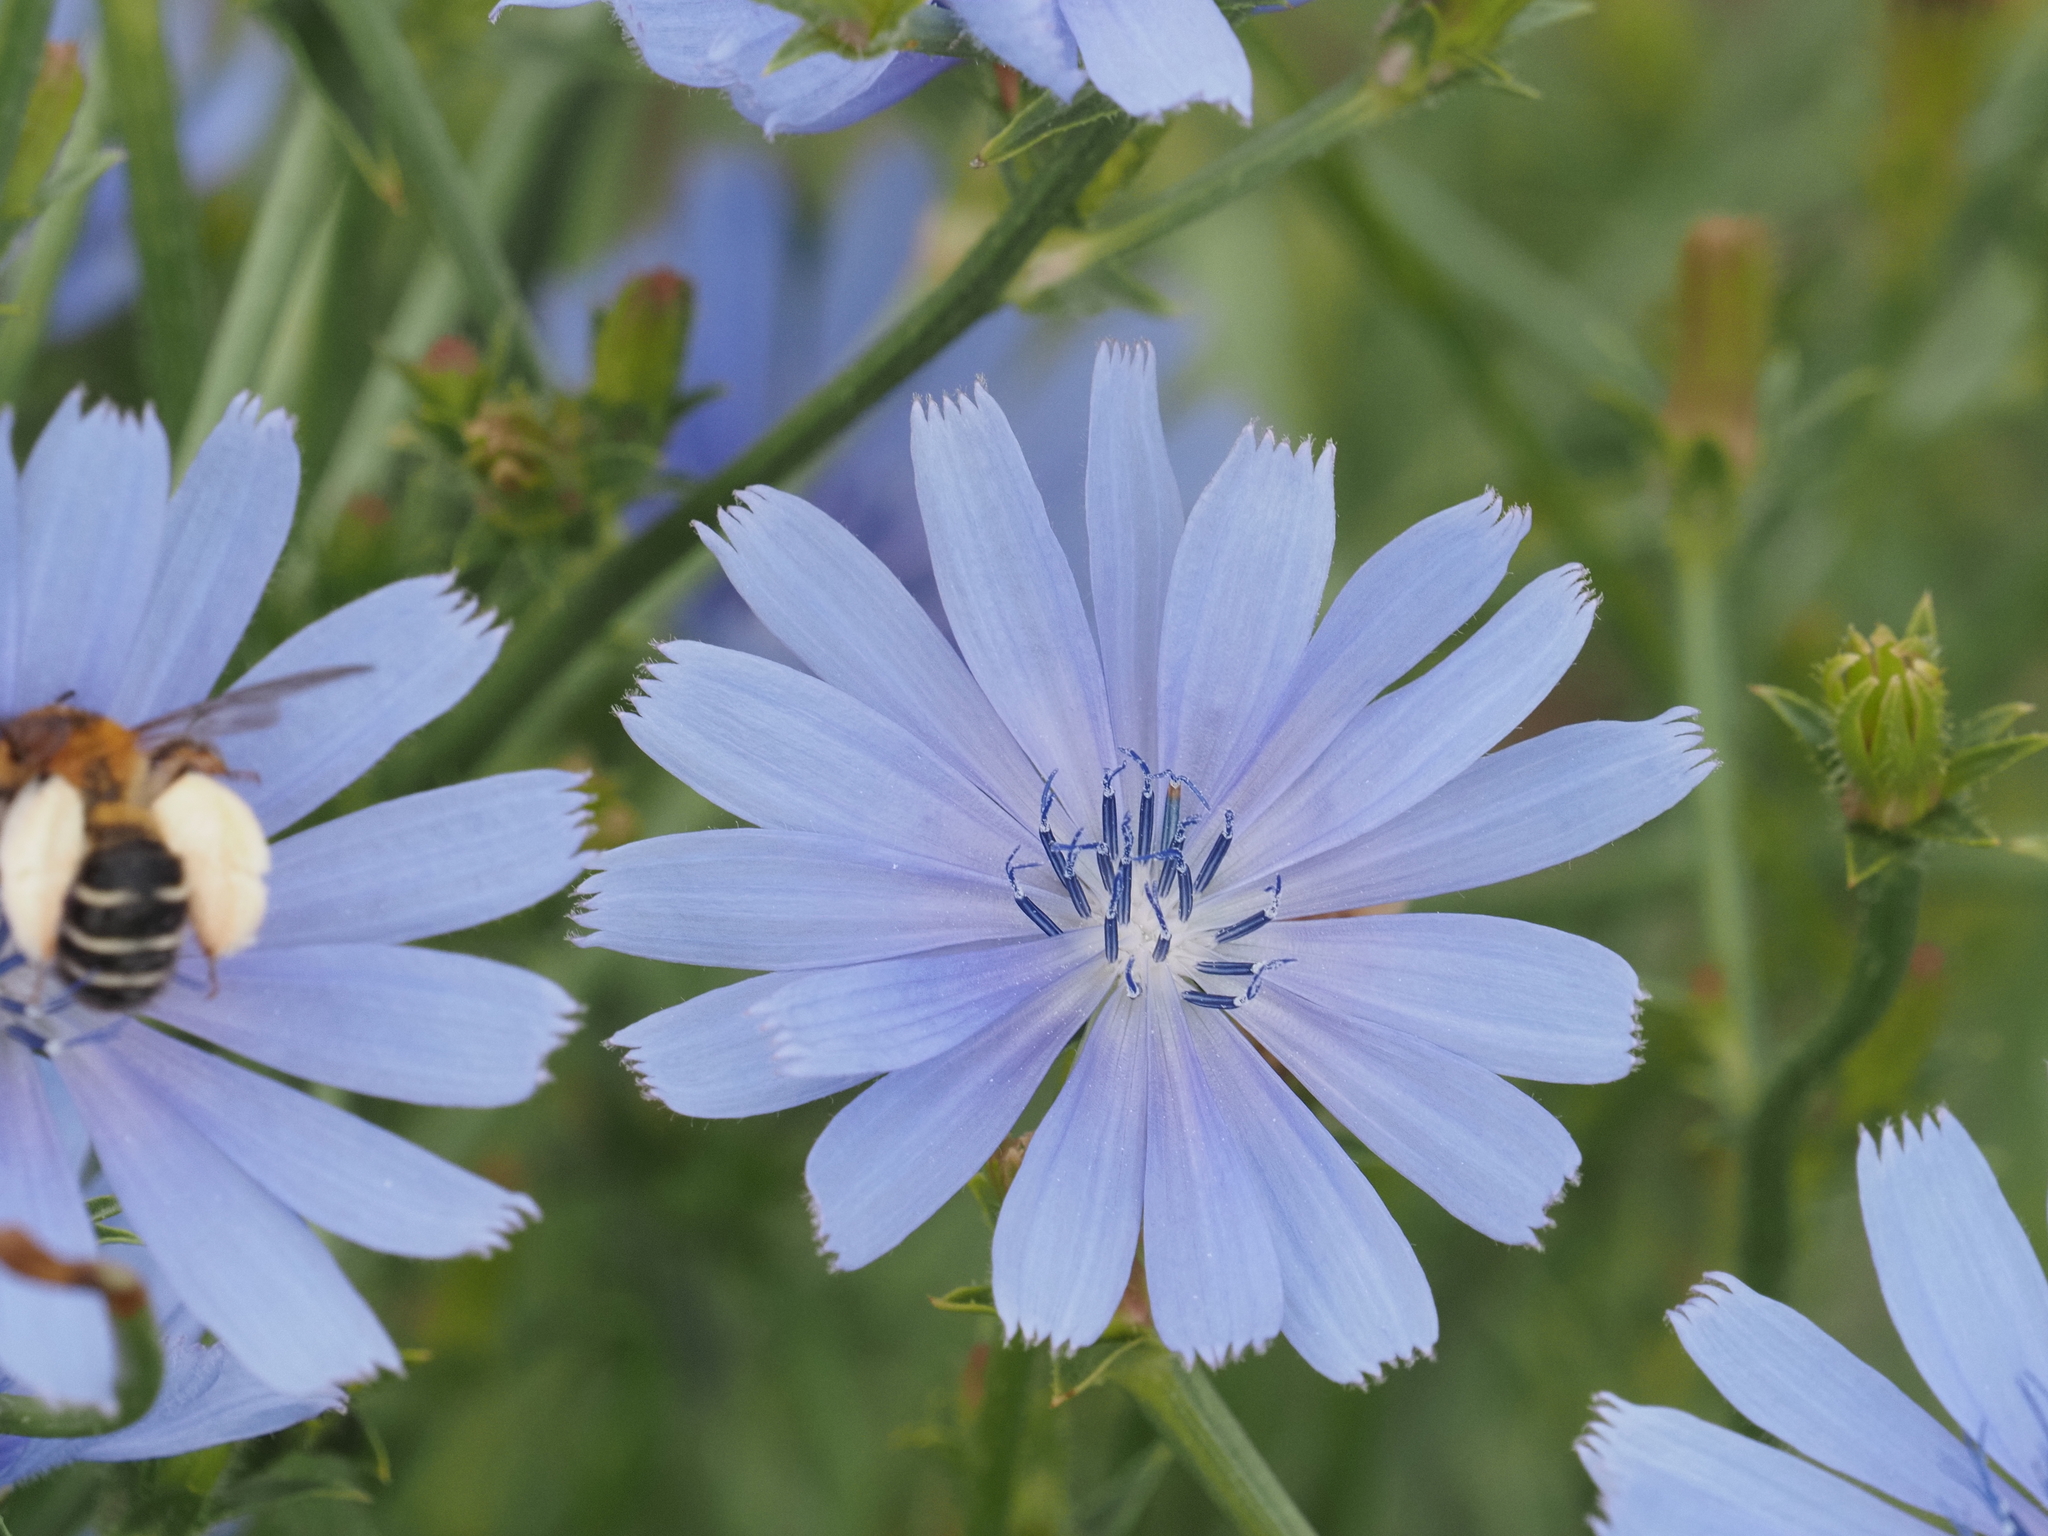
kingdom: Plantae
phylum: Tracheophyta
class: Magnoliopsida
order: Asterales
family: Asteraceae
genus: Cichorium
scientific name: Cichorium intybus
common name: Chicory
